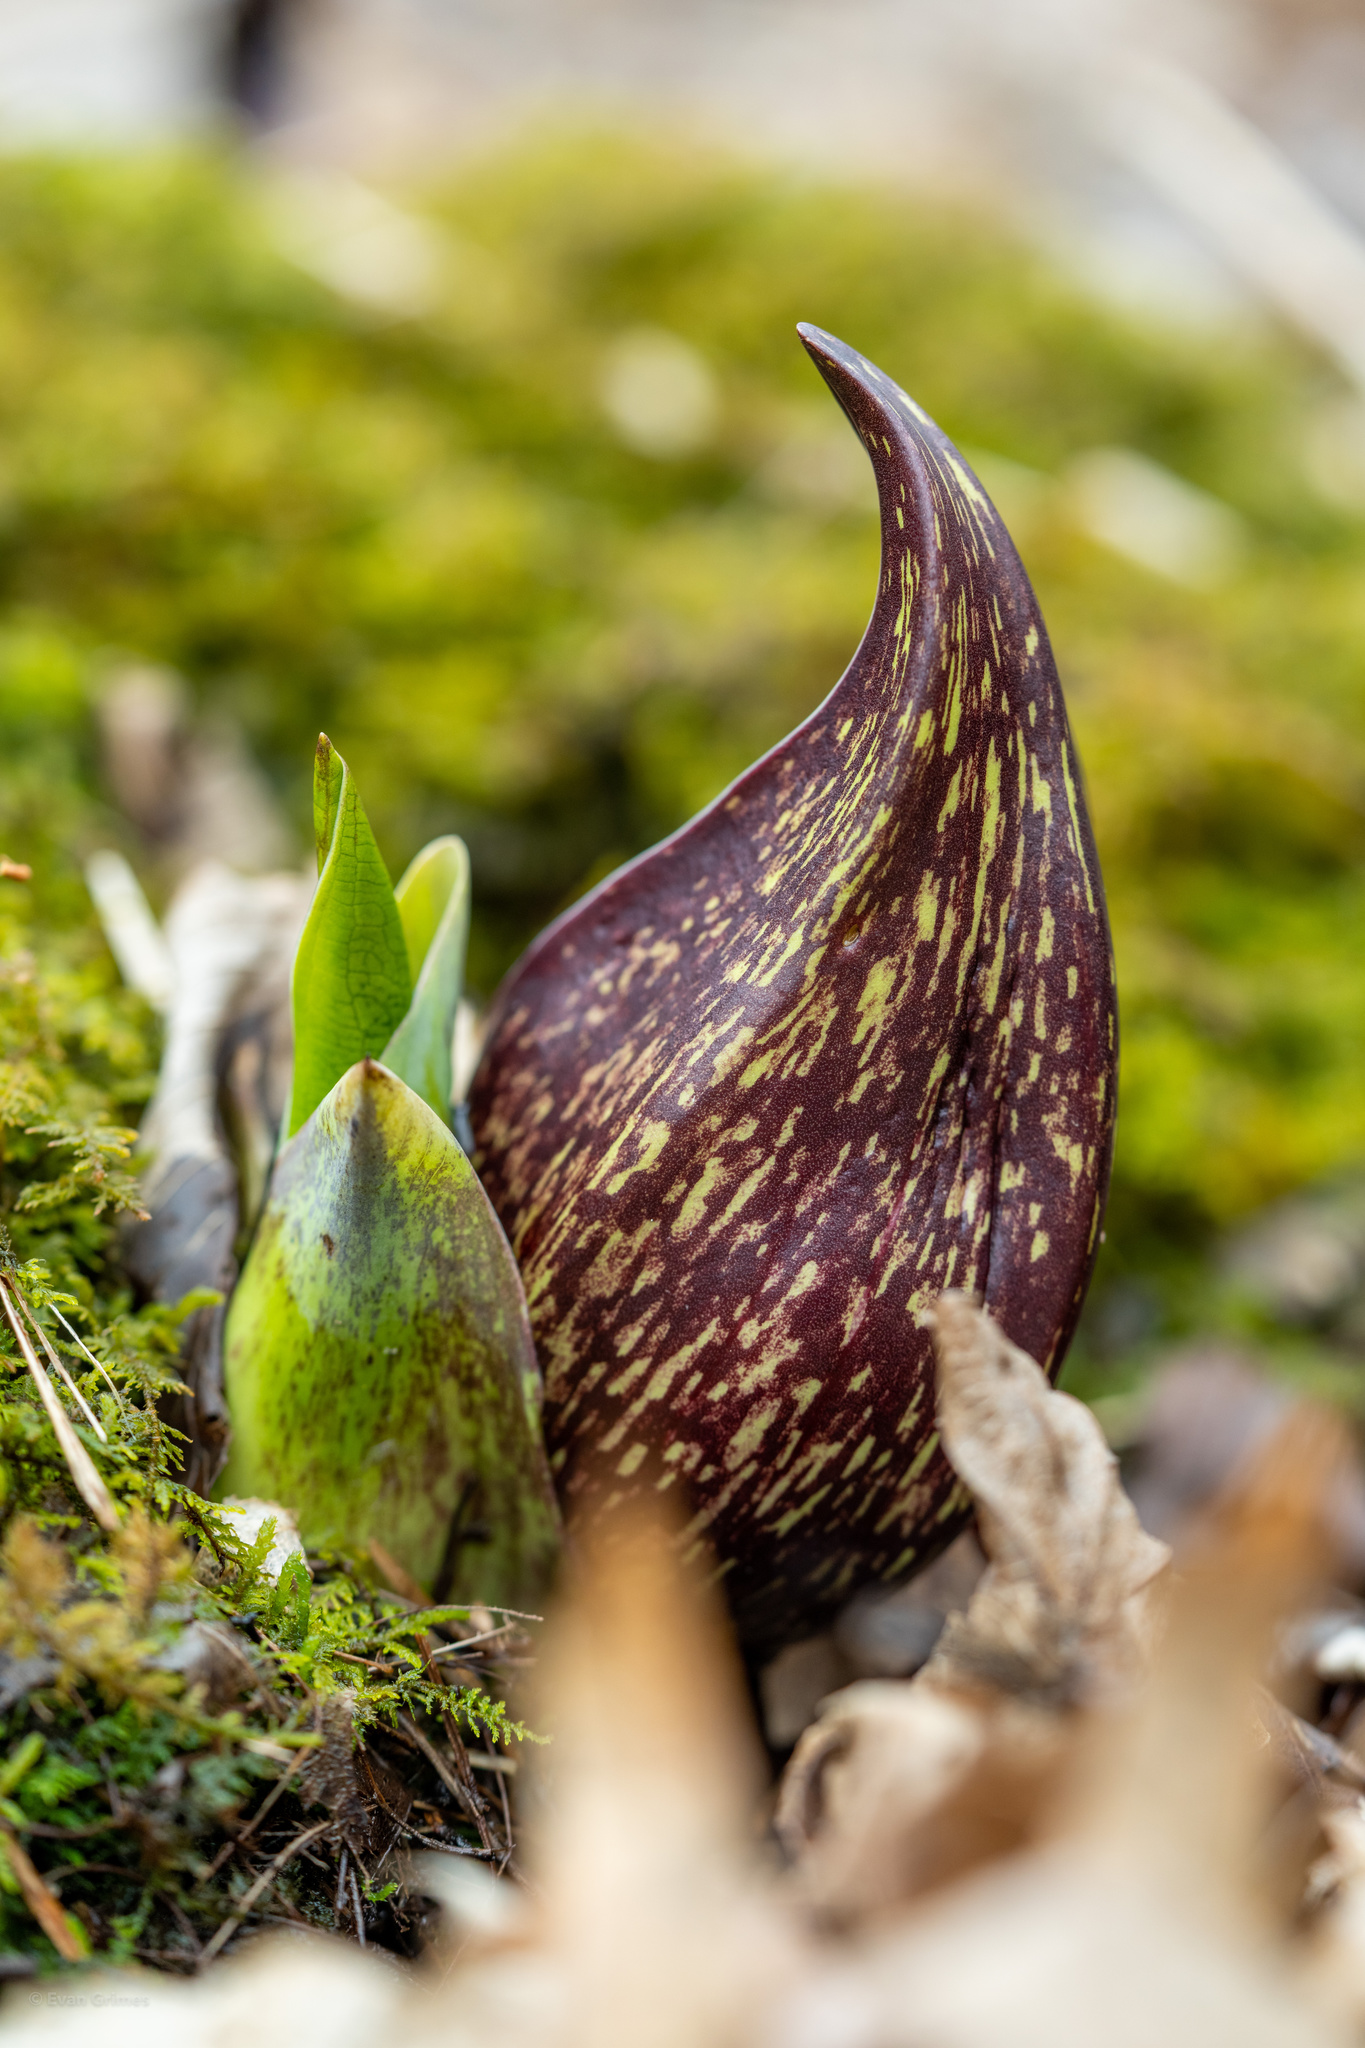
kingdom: Plantae
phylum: Tracheophyta
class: Liliopsida
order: Alismatales
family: Araceae
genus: Symplocarpus
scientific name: Symplocarpus foetidus
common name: Eastern skunk cabbage
